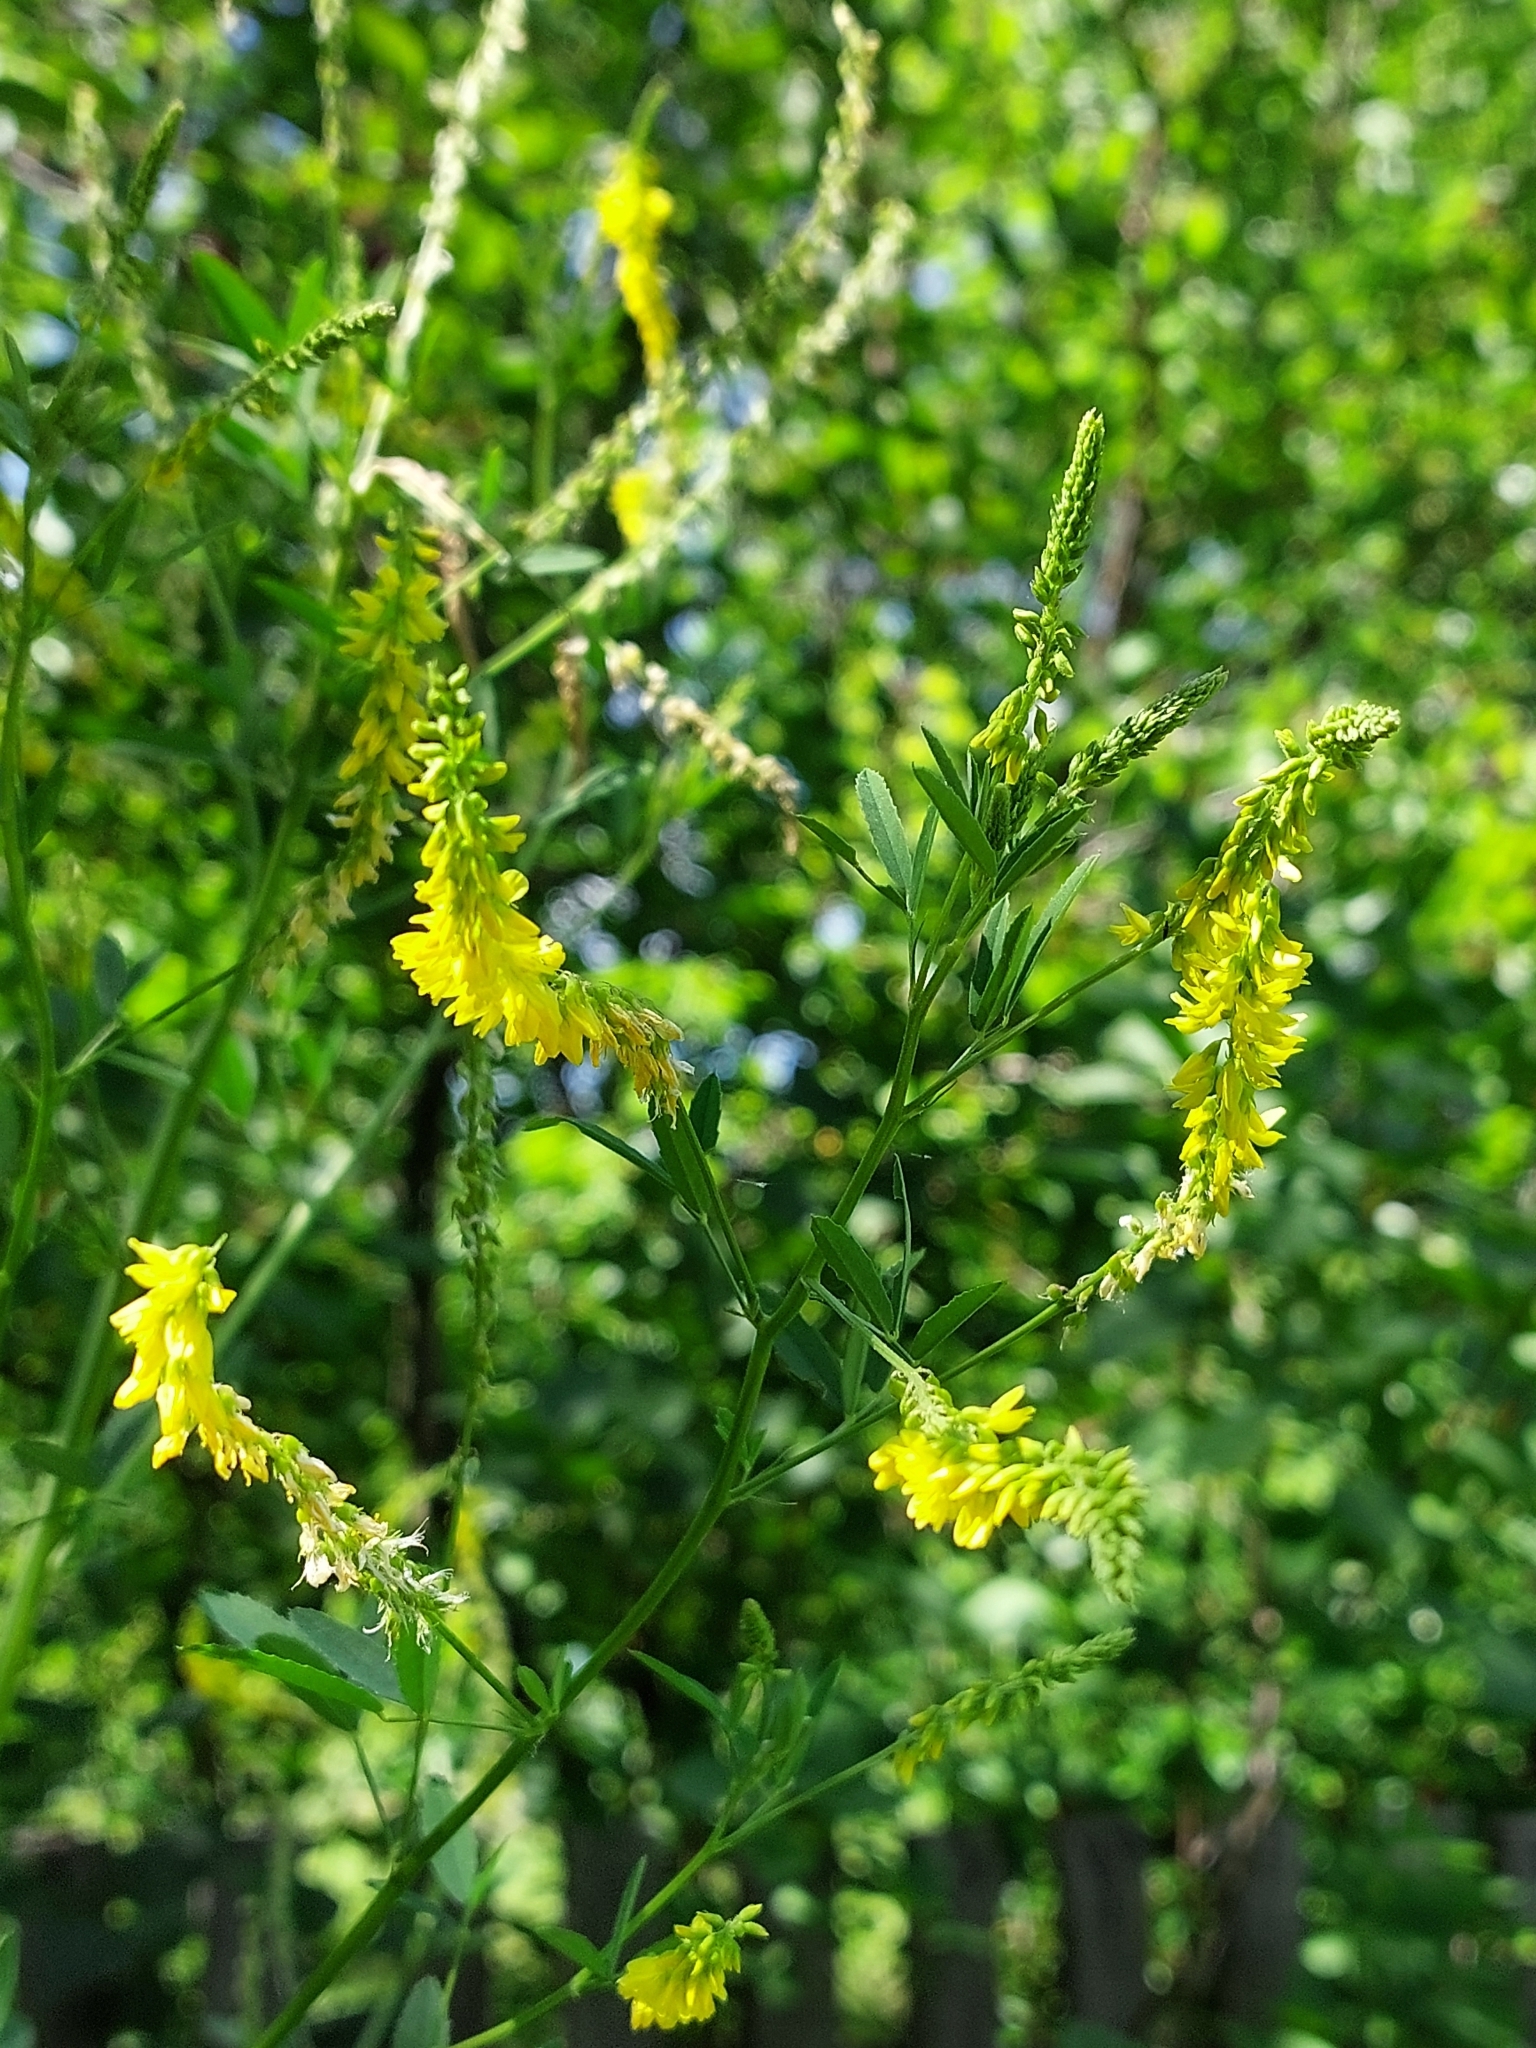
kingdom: Plantae
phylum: Tracheophyta
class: Magnoliopsida
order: Fabales
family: Fabaceae
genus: Melilotus
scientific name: Melilotus officinalis
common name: Sweetclover
